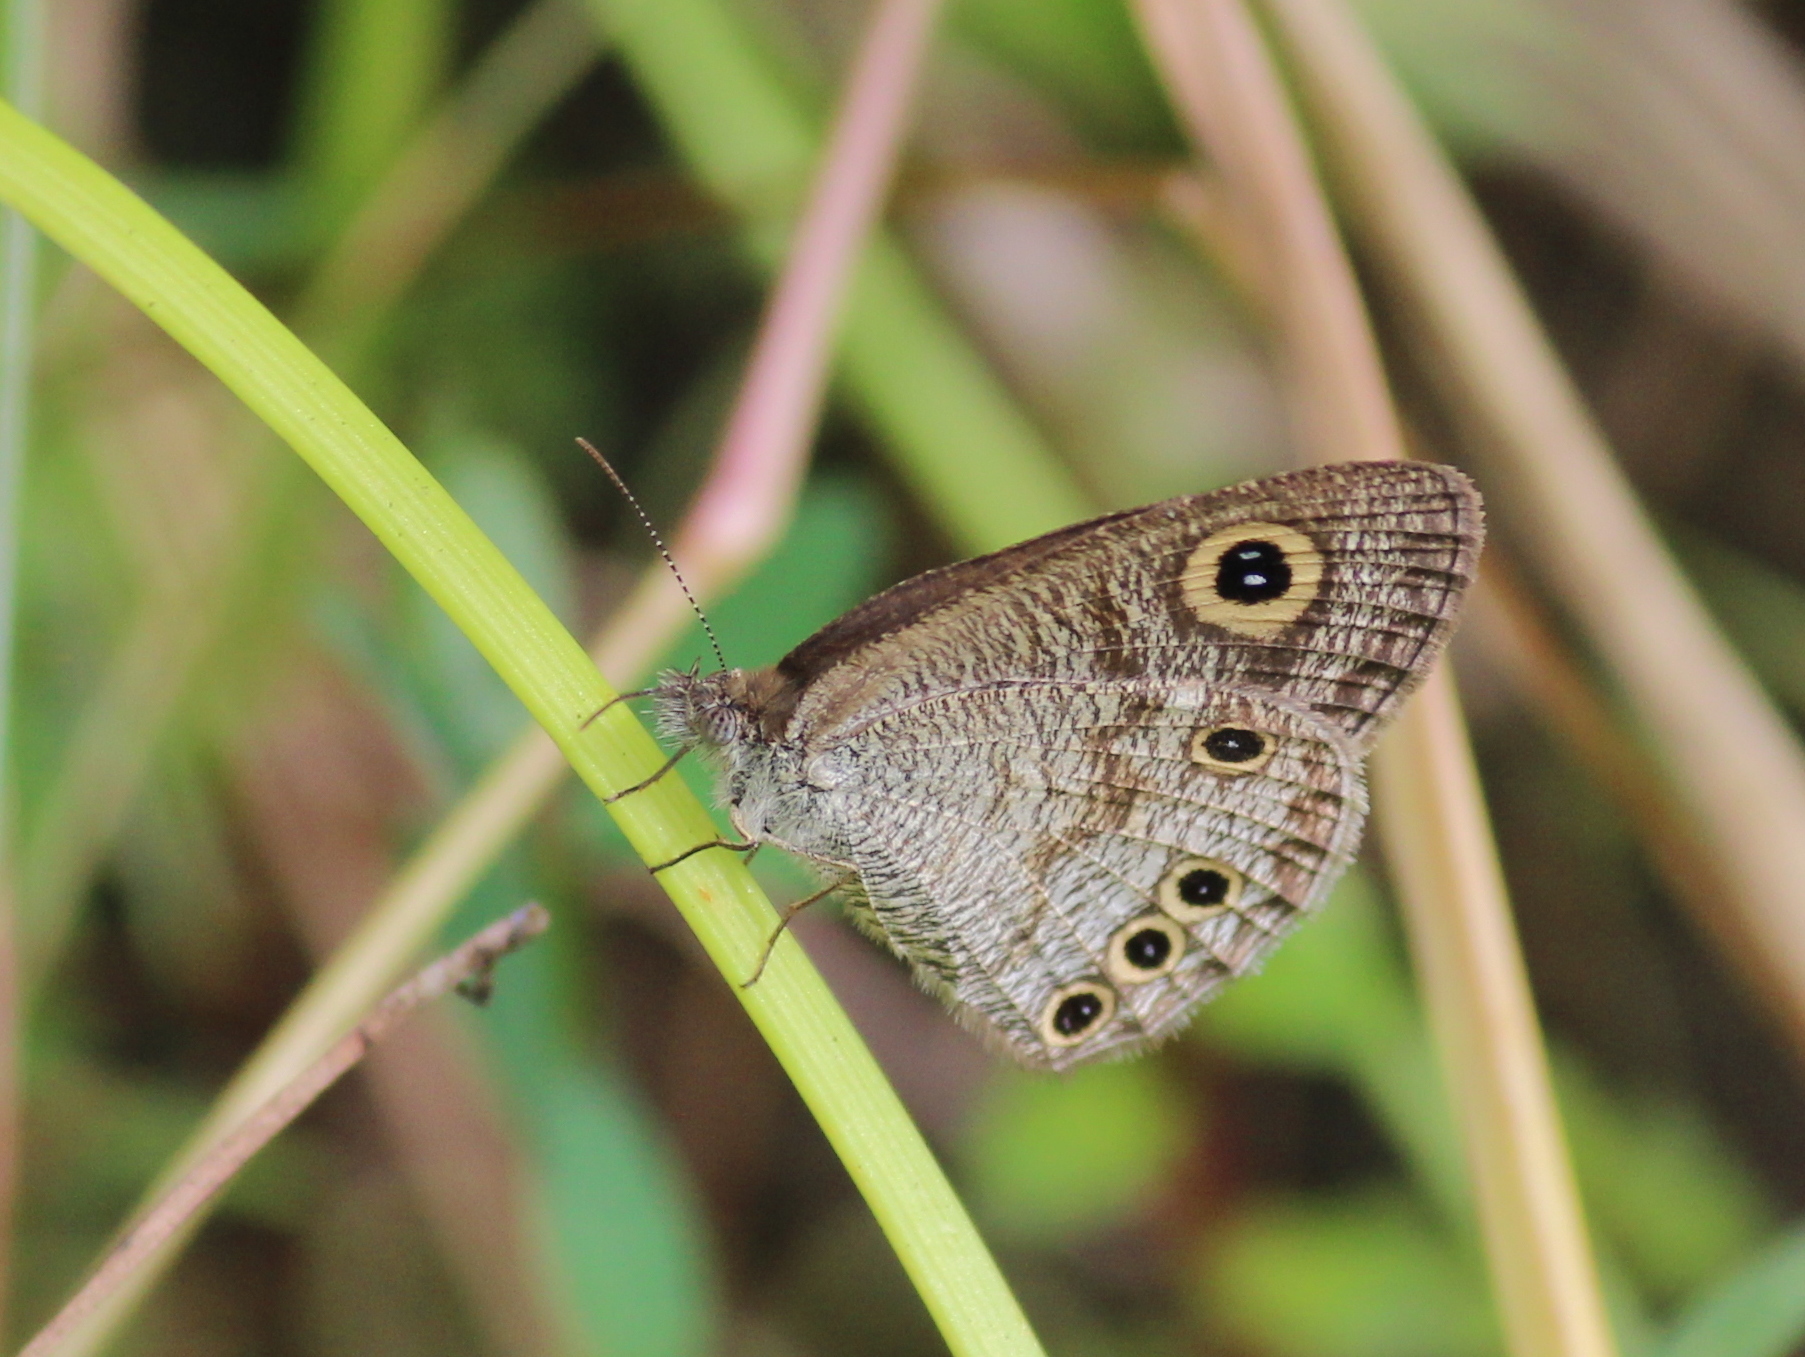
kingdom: Animalia
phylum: Arthropoda
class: Insecta
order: Lepidoptera
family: Nymphalidae
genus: Ypthima
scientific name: Ypthima huebneri
